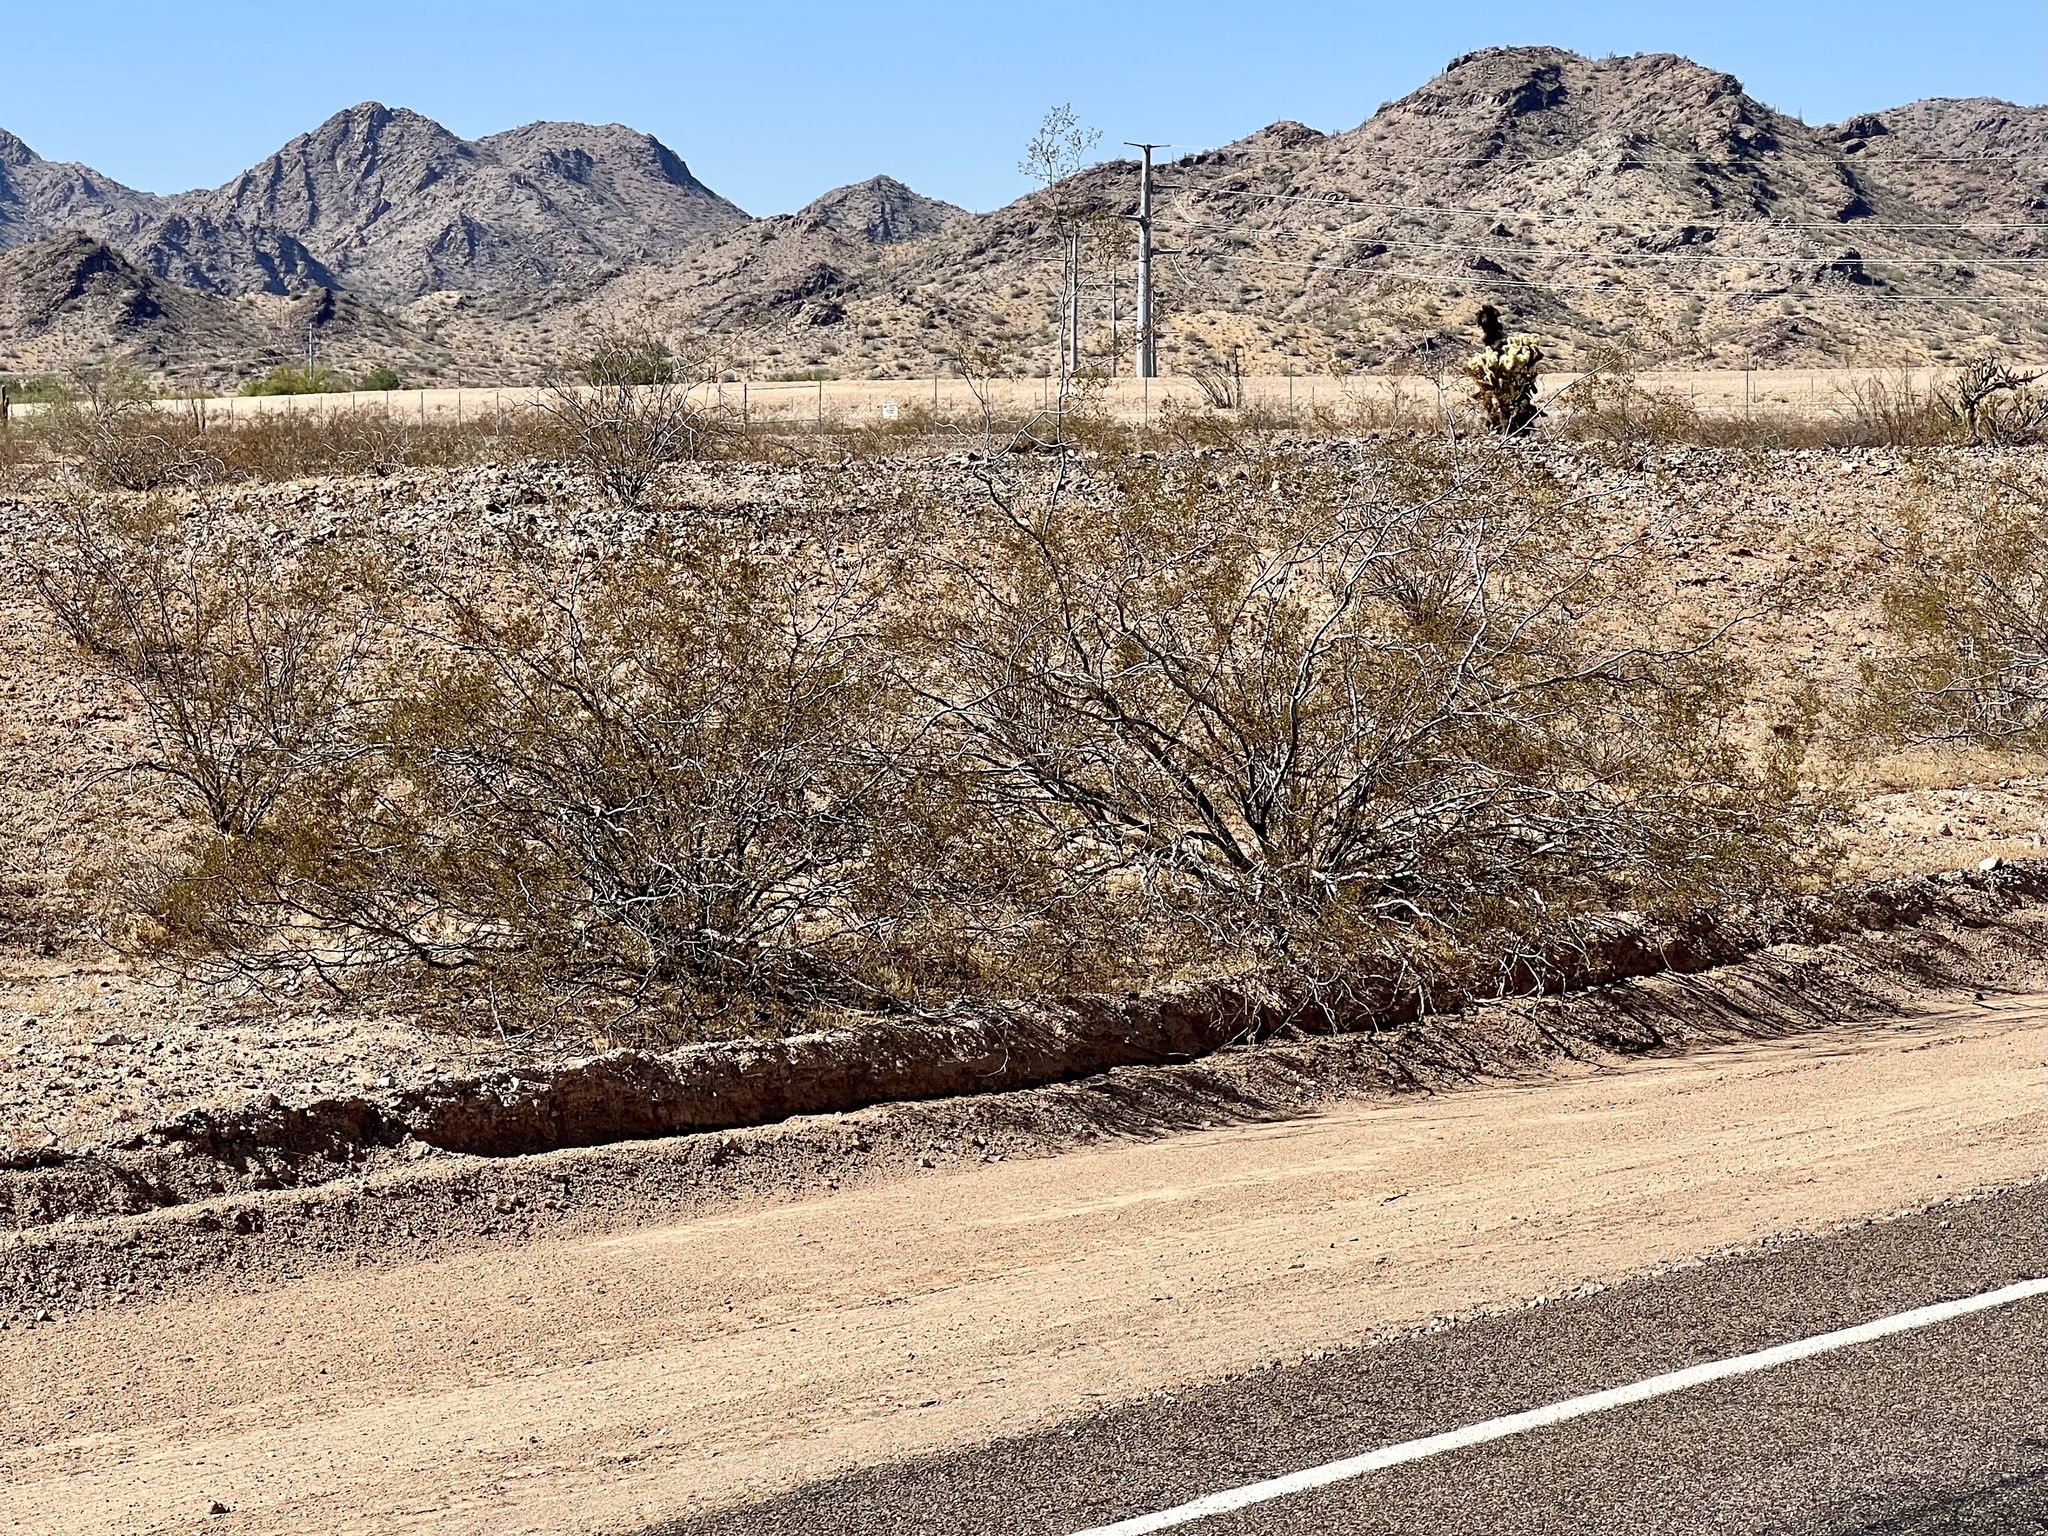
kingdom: Plantae
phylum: Tracheophyta
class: Magnoliopsida
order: Zygophyllales
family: Zygophyllaceae
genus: Larrea
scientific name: Larrea tridentata
